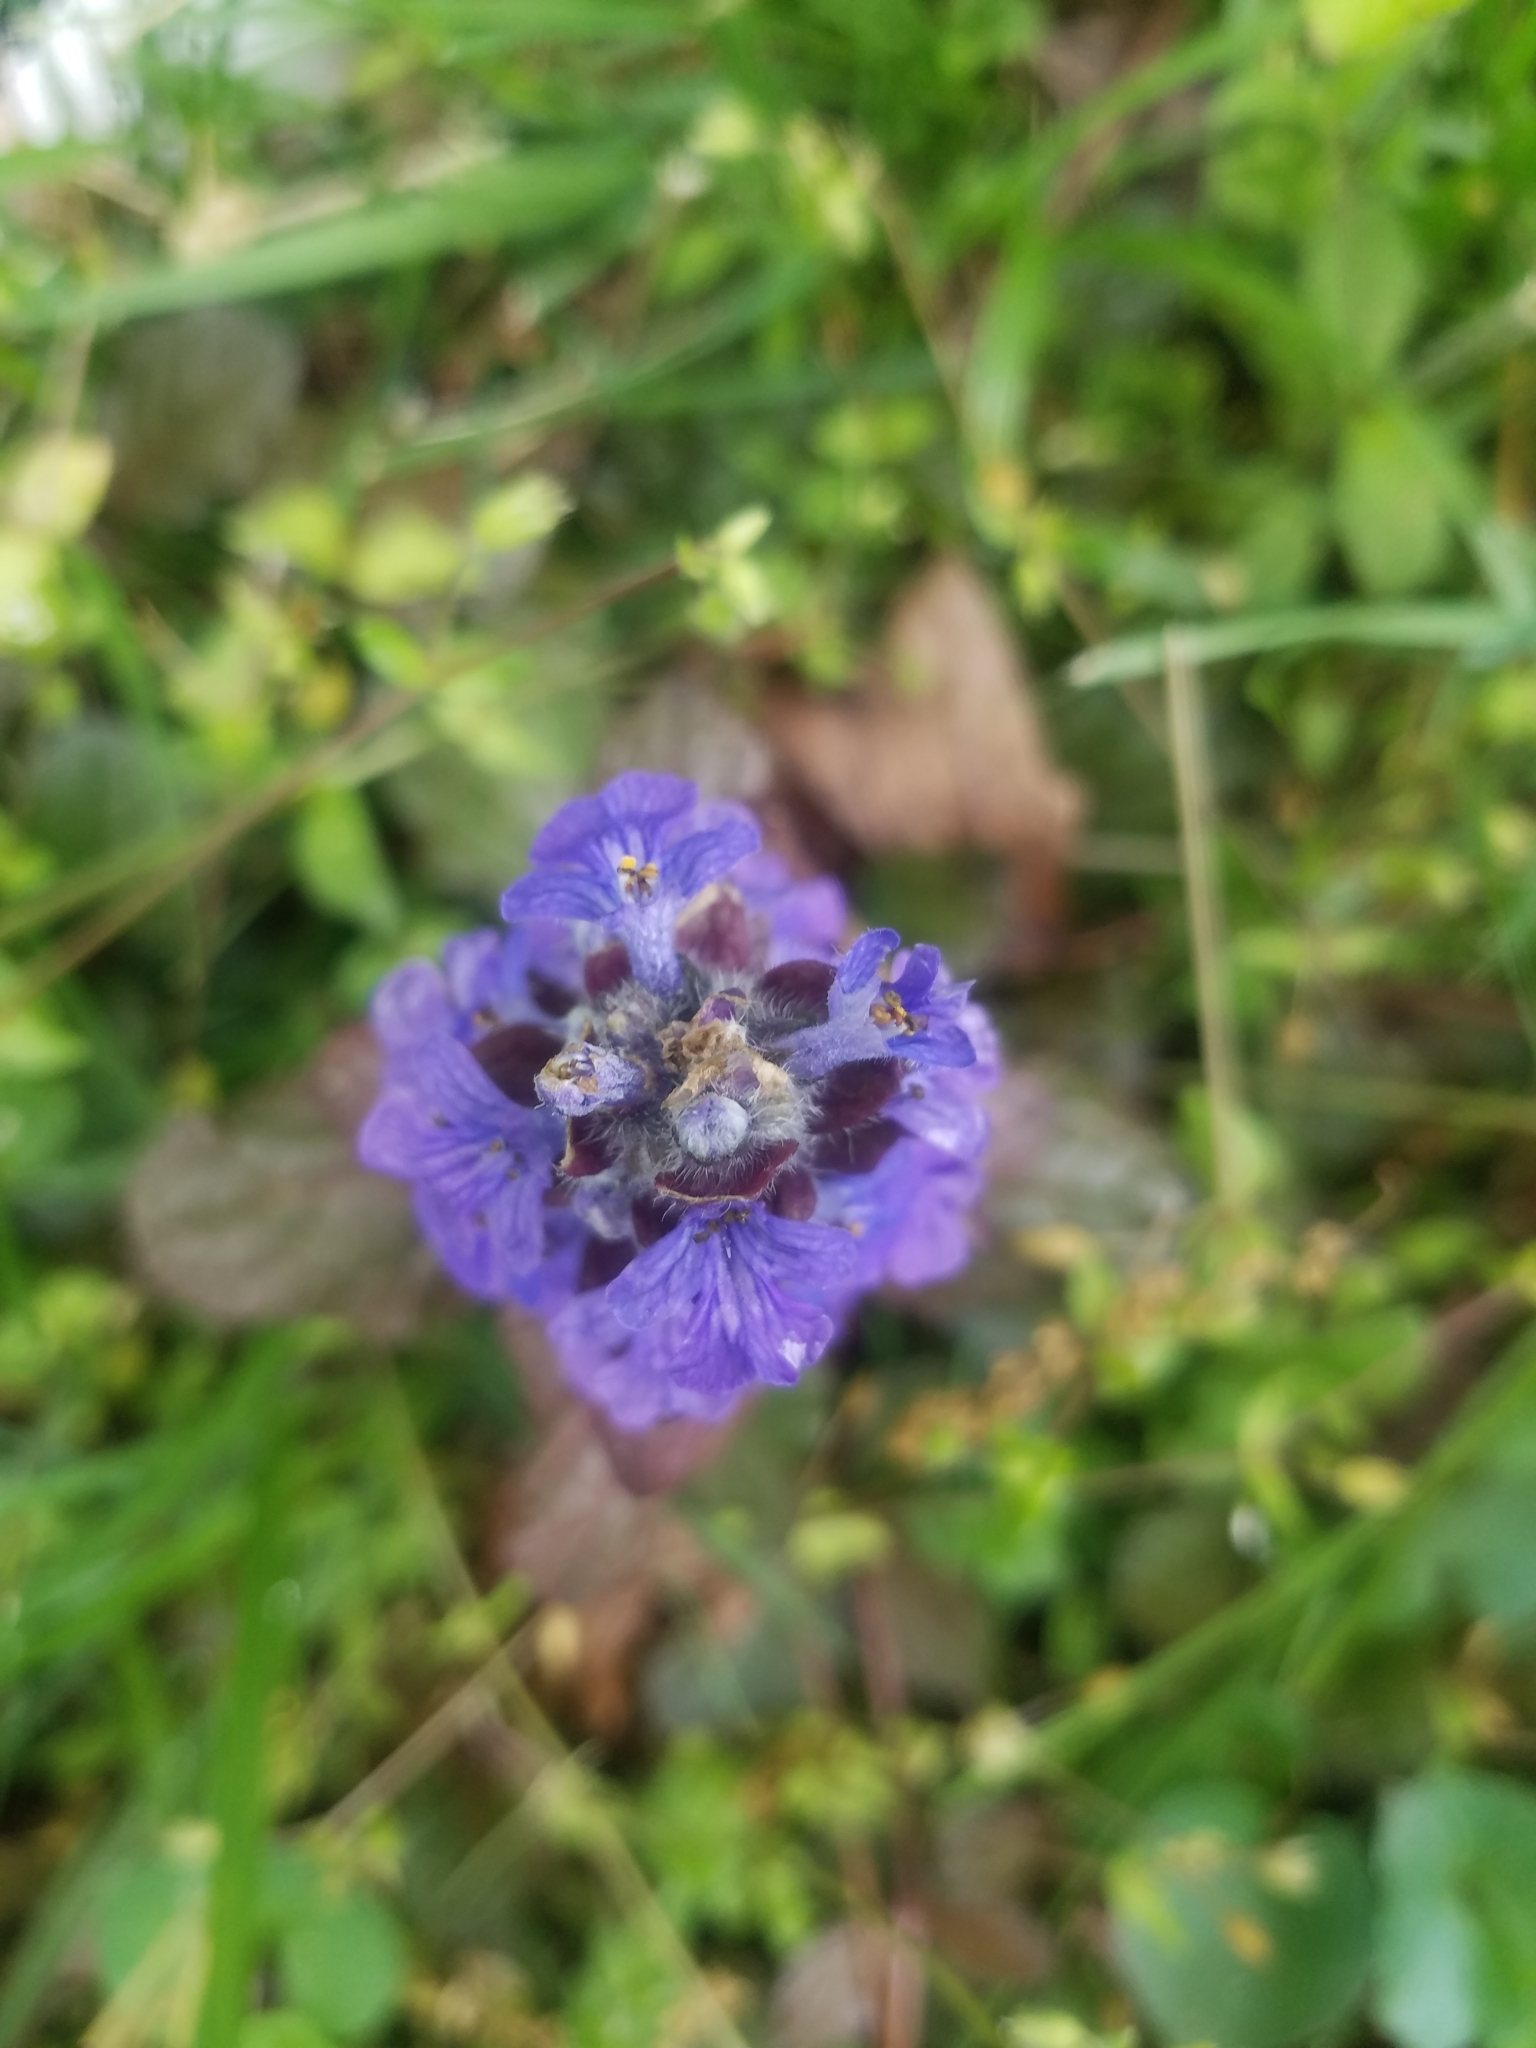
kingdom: Plantae
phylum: Tracheophyta
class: Magnoliopsida
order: Lamiales
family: Lamiaceae
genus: Ajuga
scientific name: Ajuga reptans
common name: Bugle
